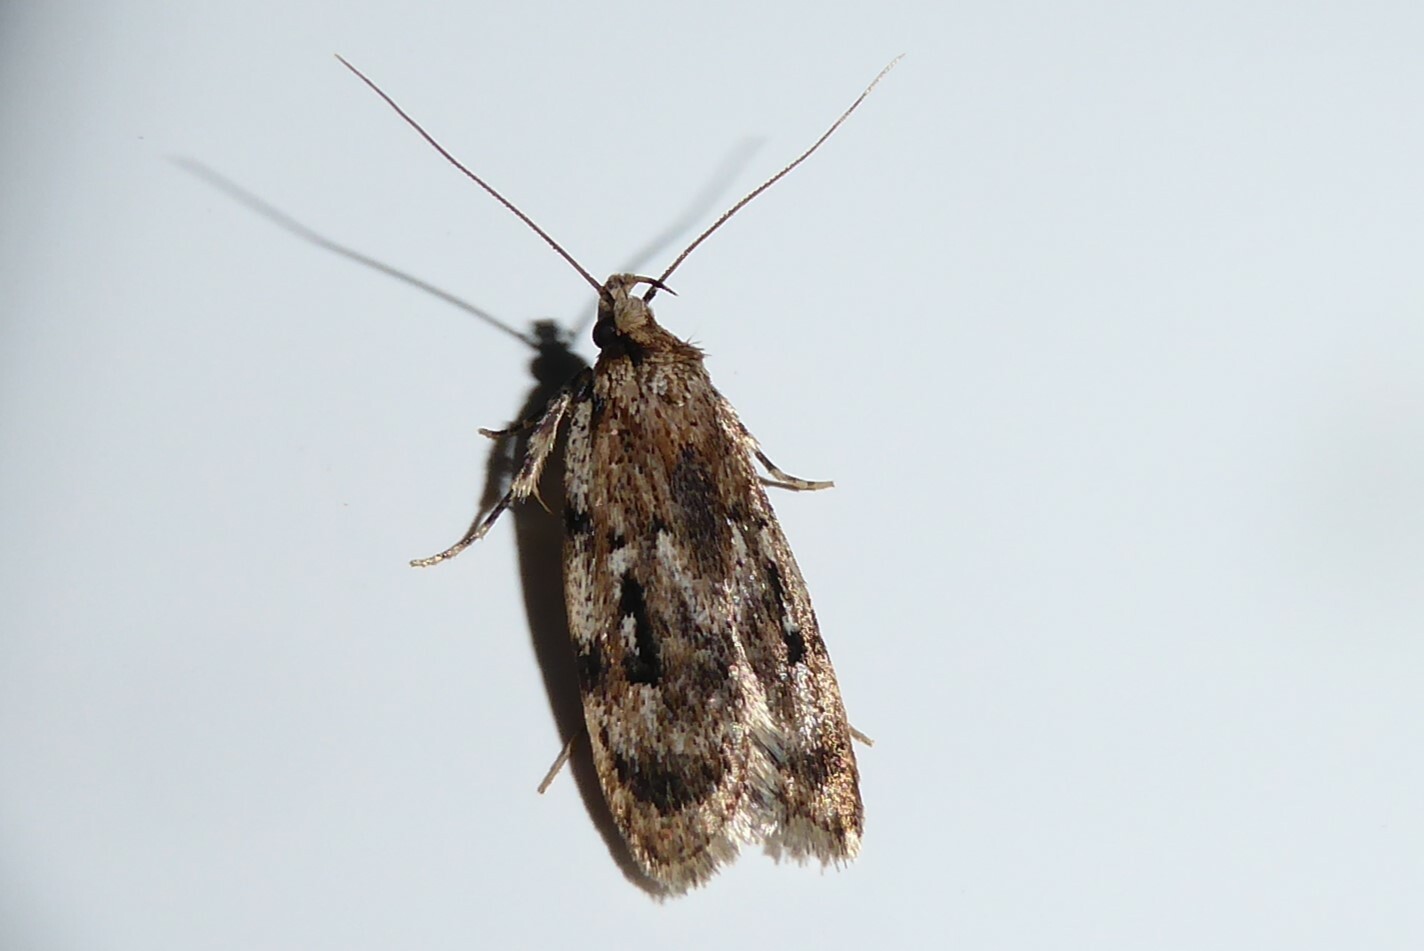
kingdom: Animalia
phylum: Arthropoda
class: Insecta
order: Lepidoptera
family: Oecophoridae
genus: Barea
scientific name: Barea exarcha
